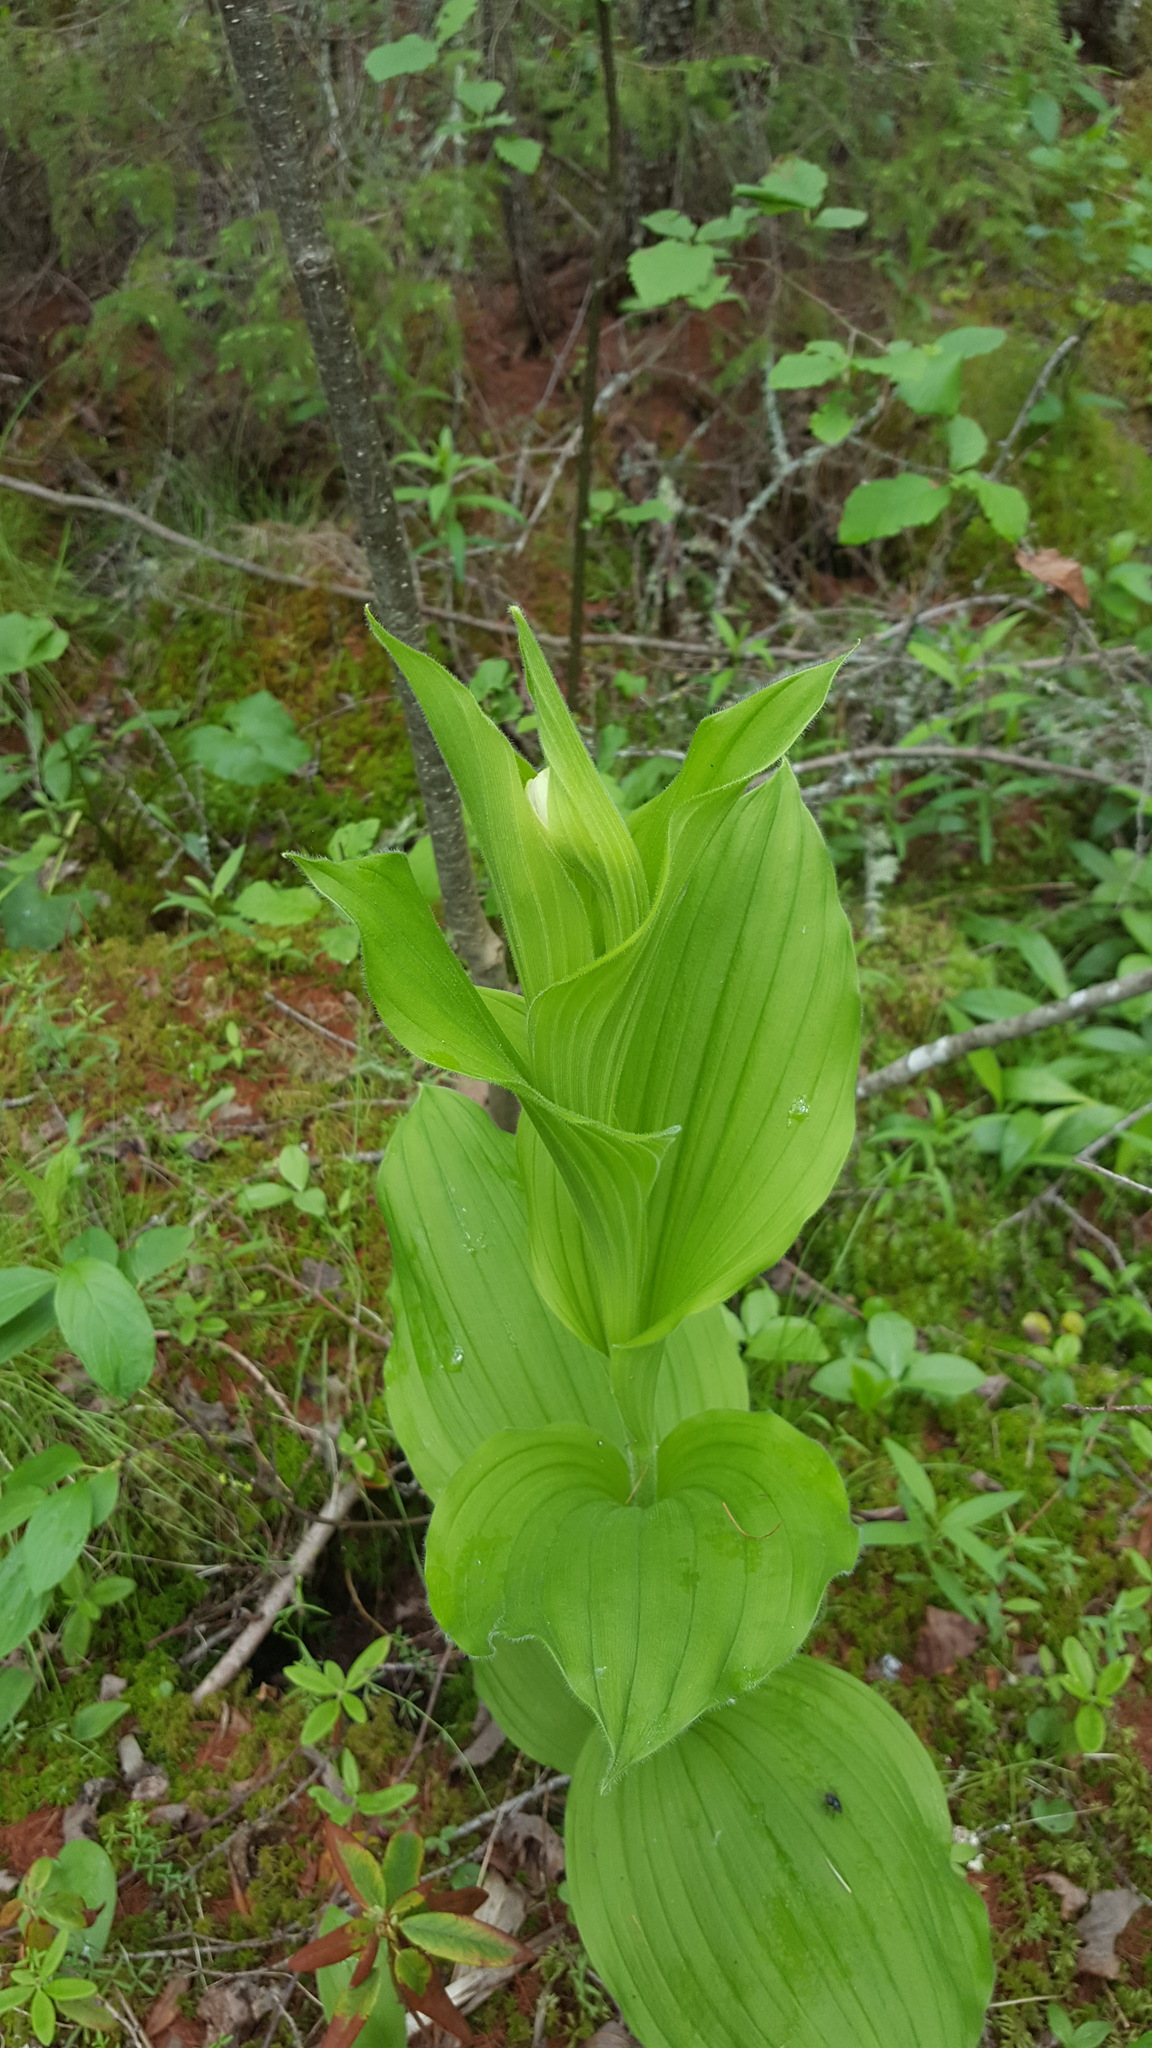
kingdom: Plantae
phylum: Tracheophyta
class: Liliopsida
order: Asparagales
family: Orchidaceae
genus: Cypripedium
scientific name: Cypripedium reginae
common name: Queen lady's-slipper
